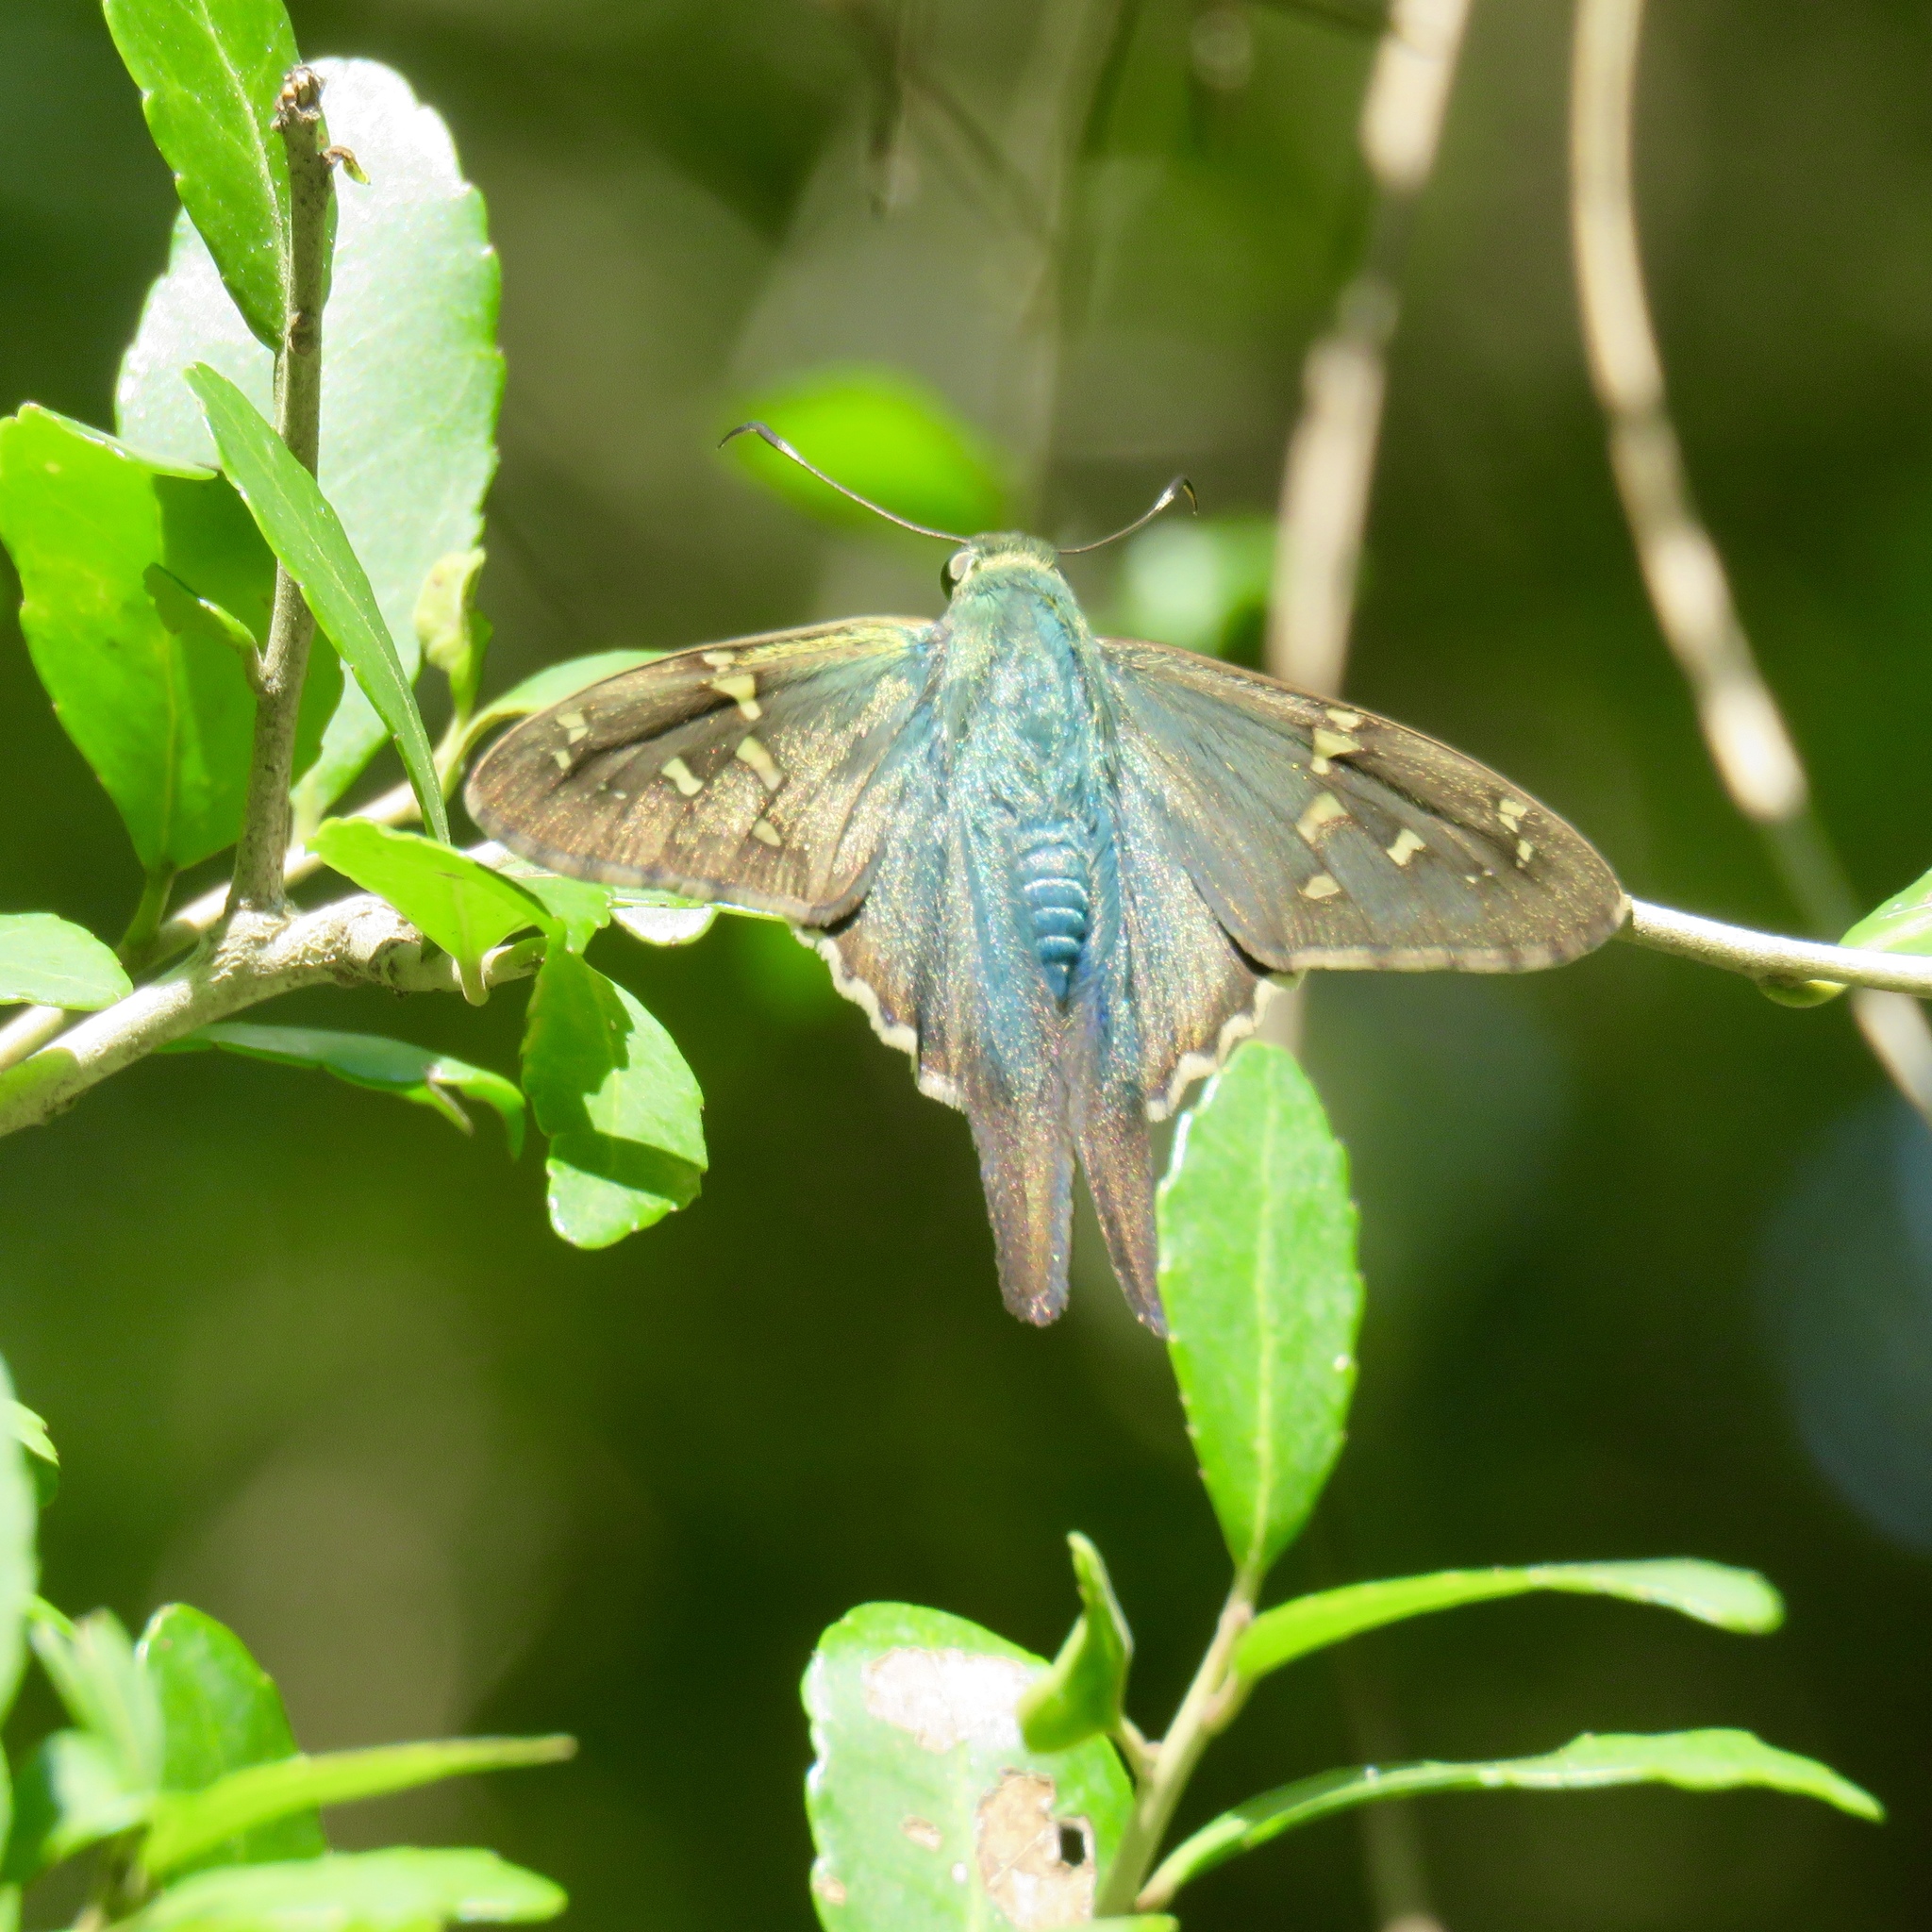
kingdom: Animalia
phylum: Arthropoda
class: Insecta
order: Lepidoptera
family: Hesperiidae
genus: Urbanus
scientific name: Urbanus proteus
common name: Long-tailed skipper
